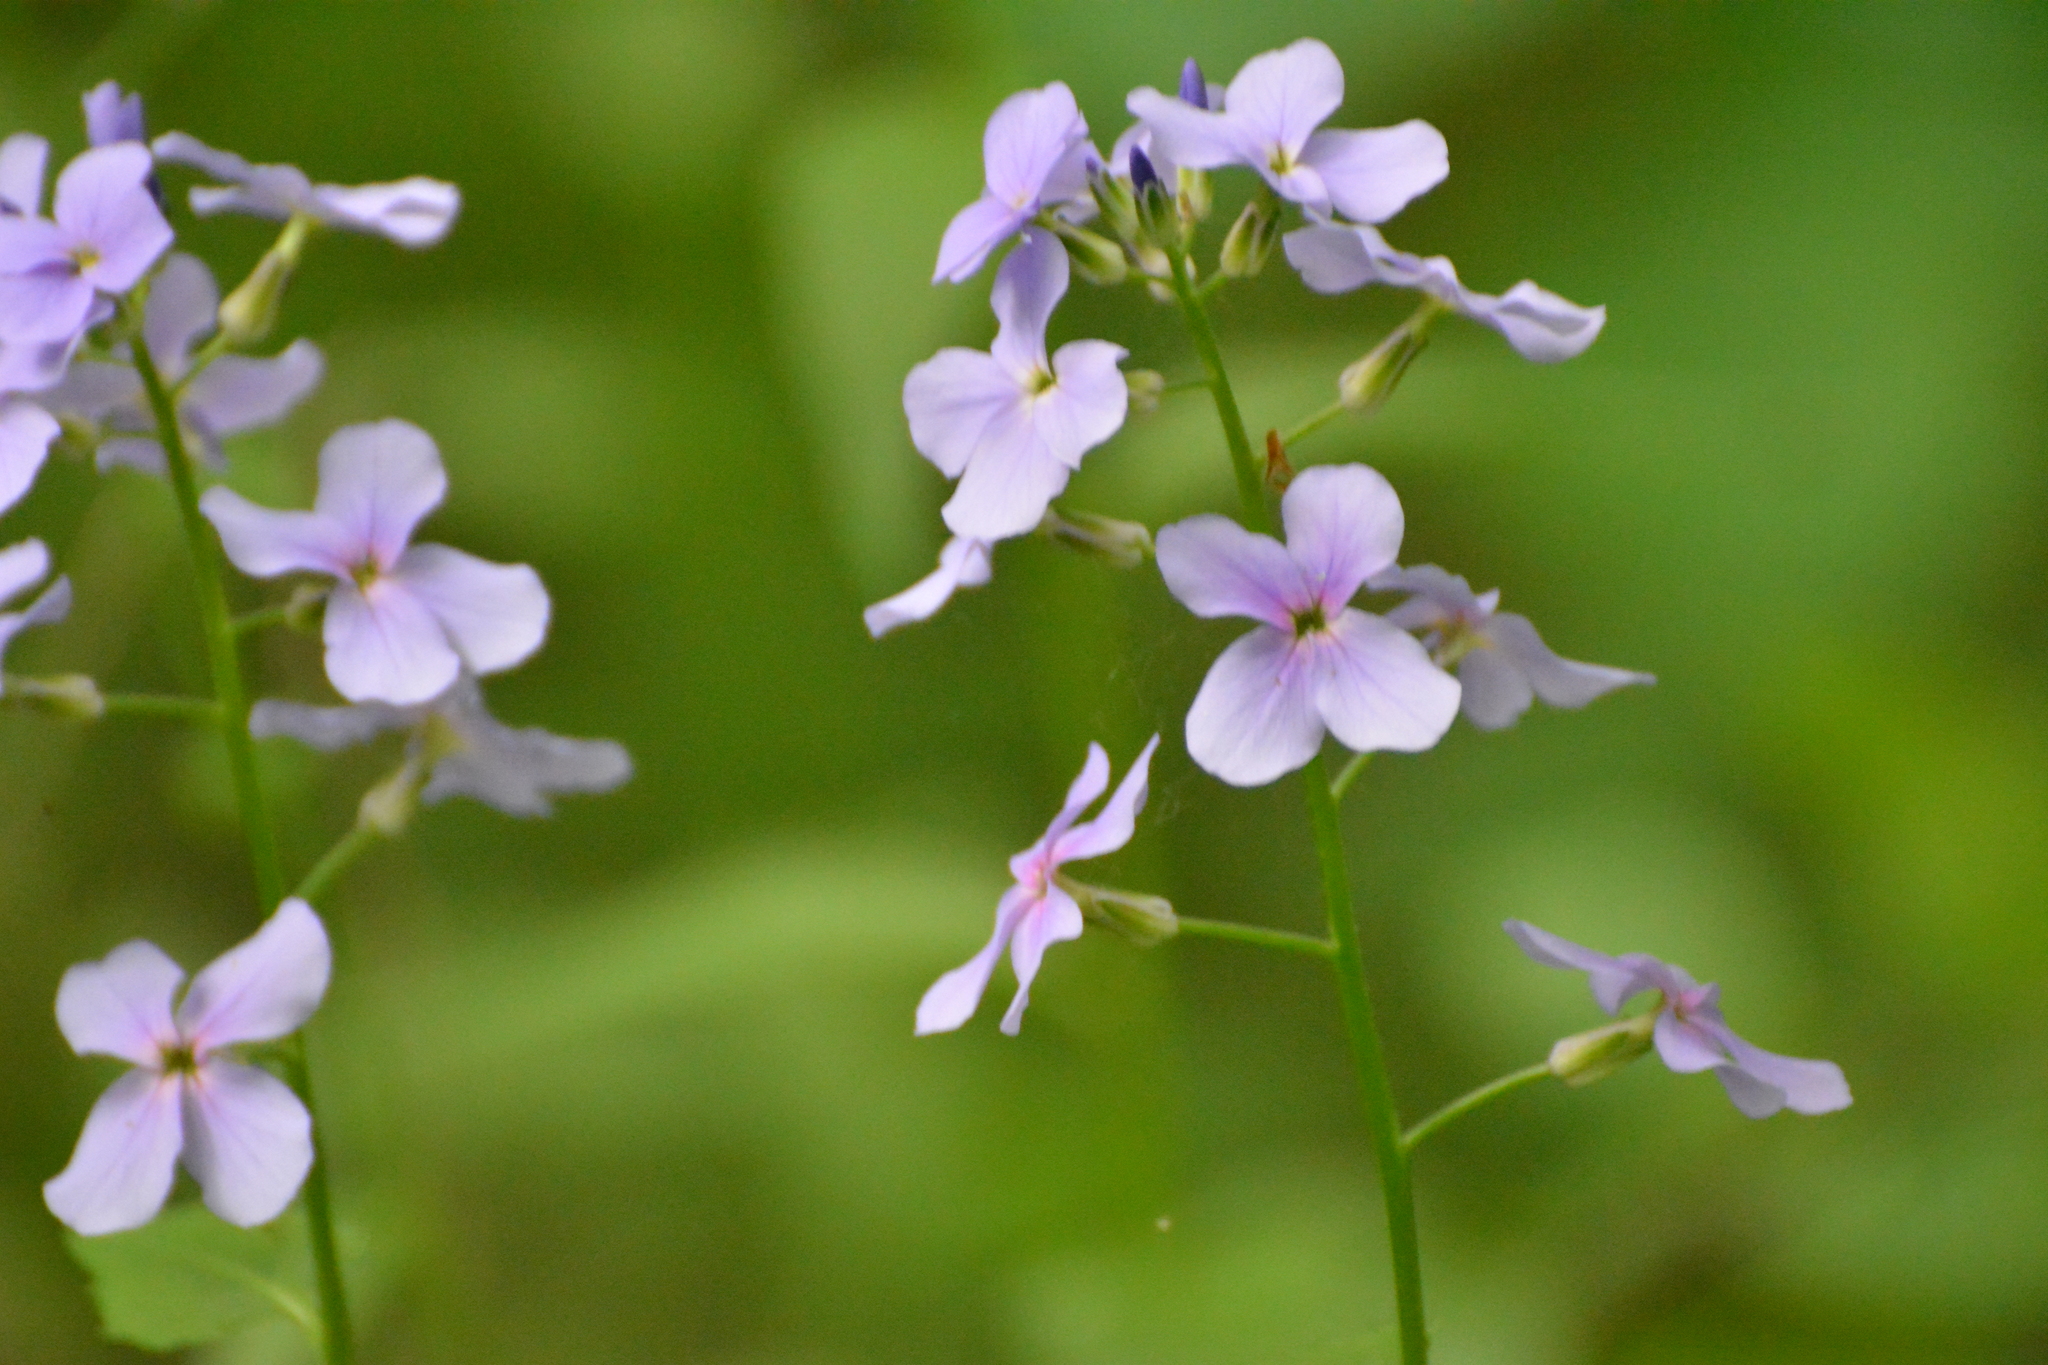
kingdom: Plantae
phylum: Tracheophyta
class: Magnoliopsida
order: Brassicales
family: Brassicaceae
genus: Hesperis
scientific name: Hesperis matronalis
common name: Dame's-violet
